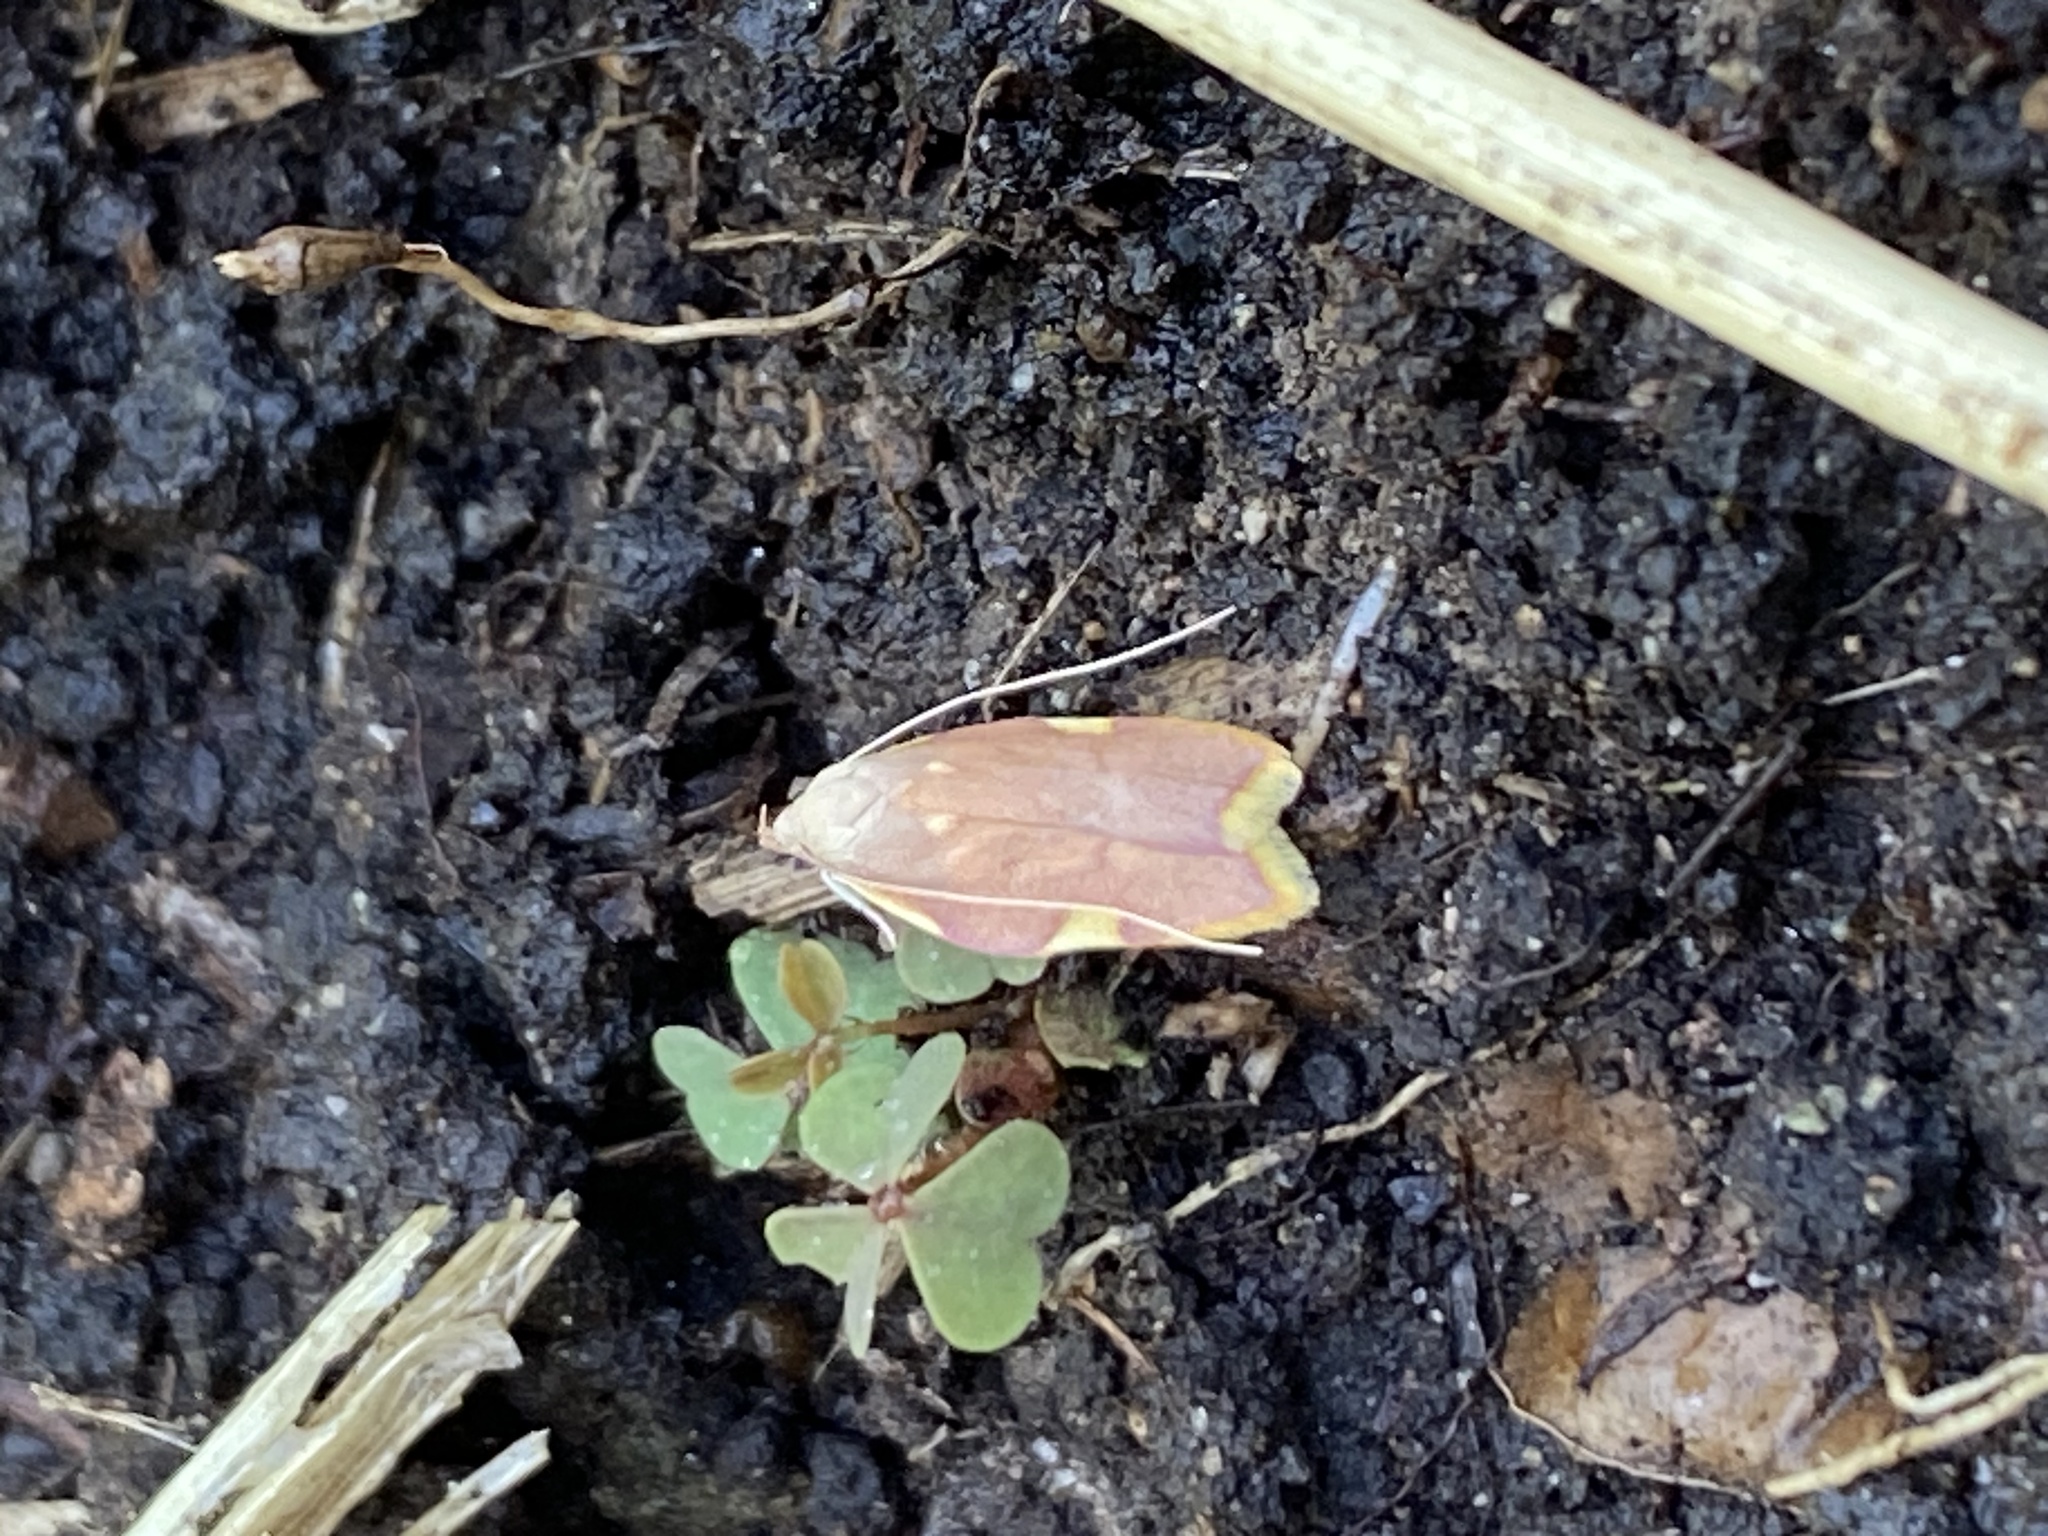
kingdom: Animalia
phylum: Arthropoda
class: Insecta
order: Lepidoptera
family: Peleopodidae
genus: Carcina
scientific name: Carcina quercana
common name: Moth
